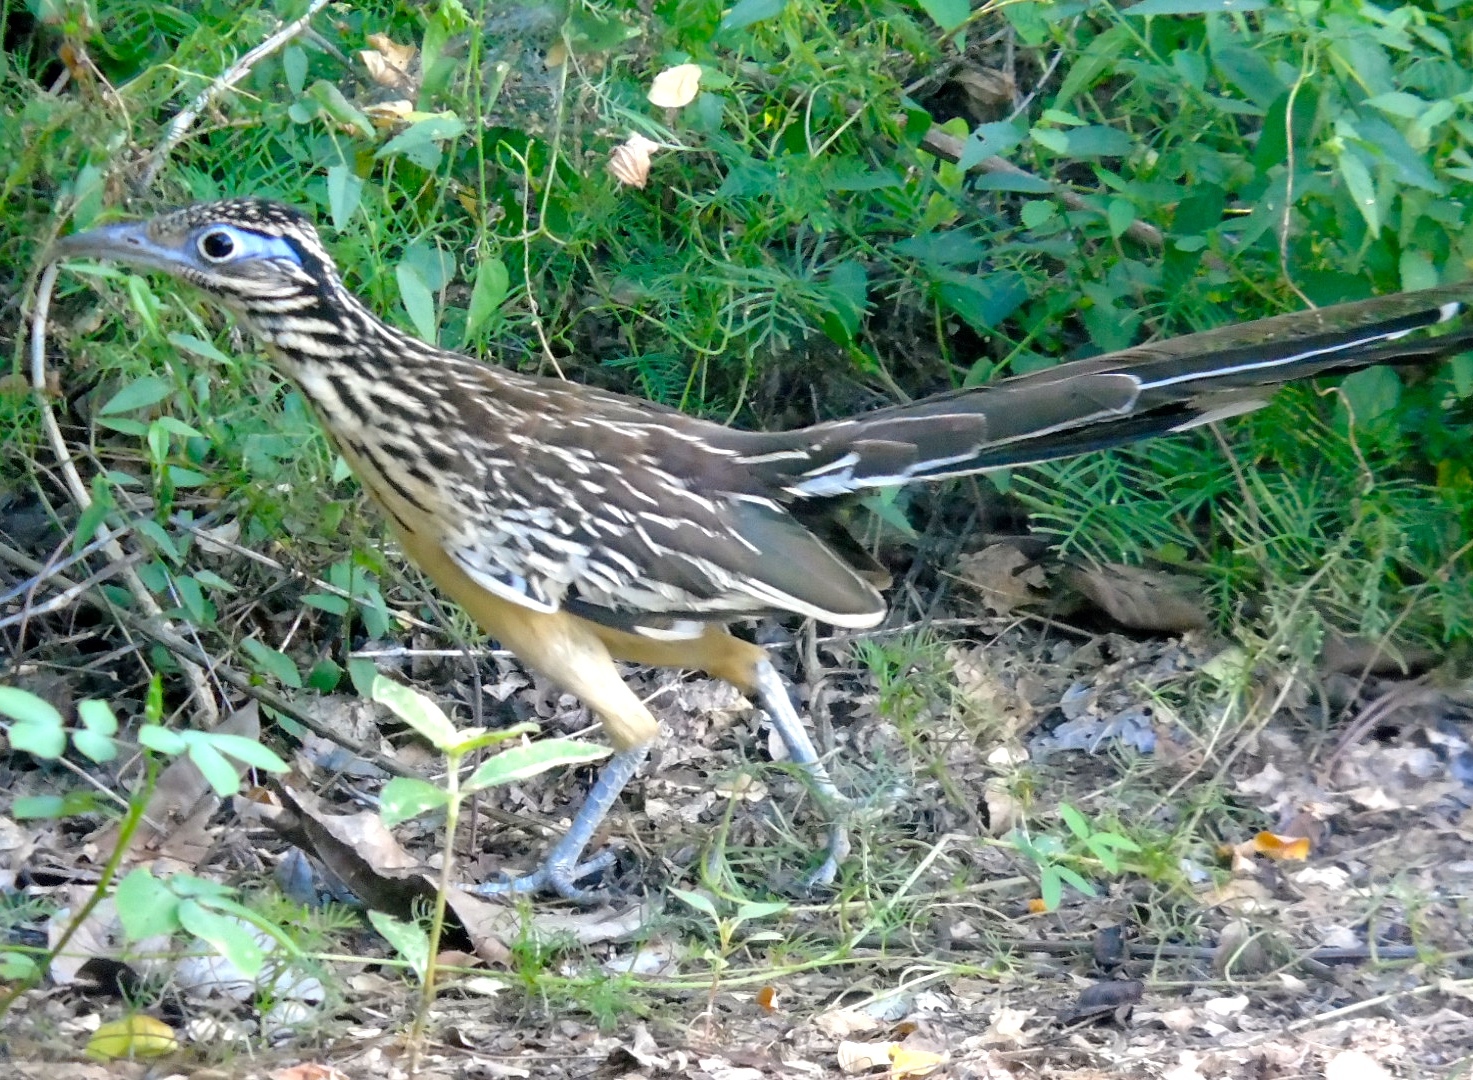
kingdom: Animalia
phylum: Chordata
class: Aves
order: Cuculiformes
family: Cuculidae
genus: Geococcyx
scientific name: Geococcyx velox
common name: Lesser roadrunner
